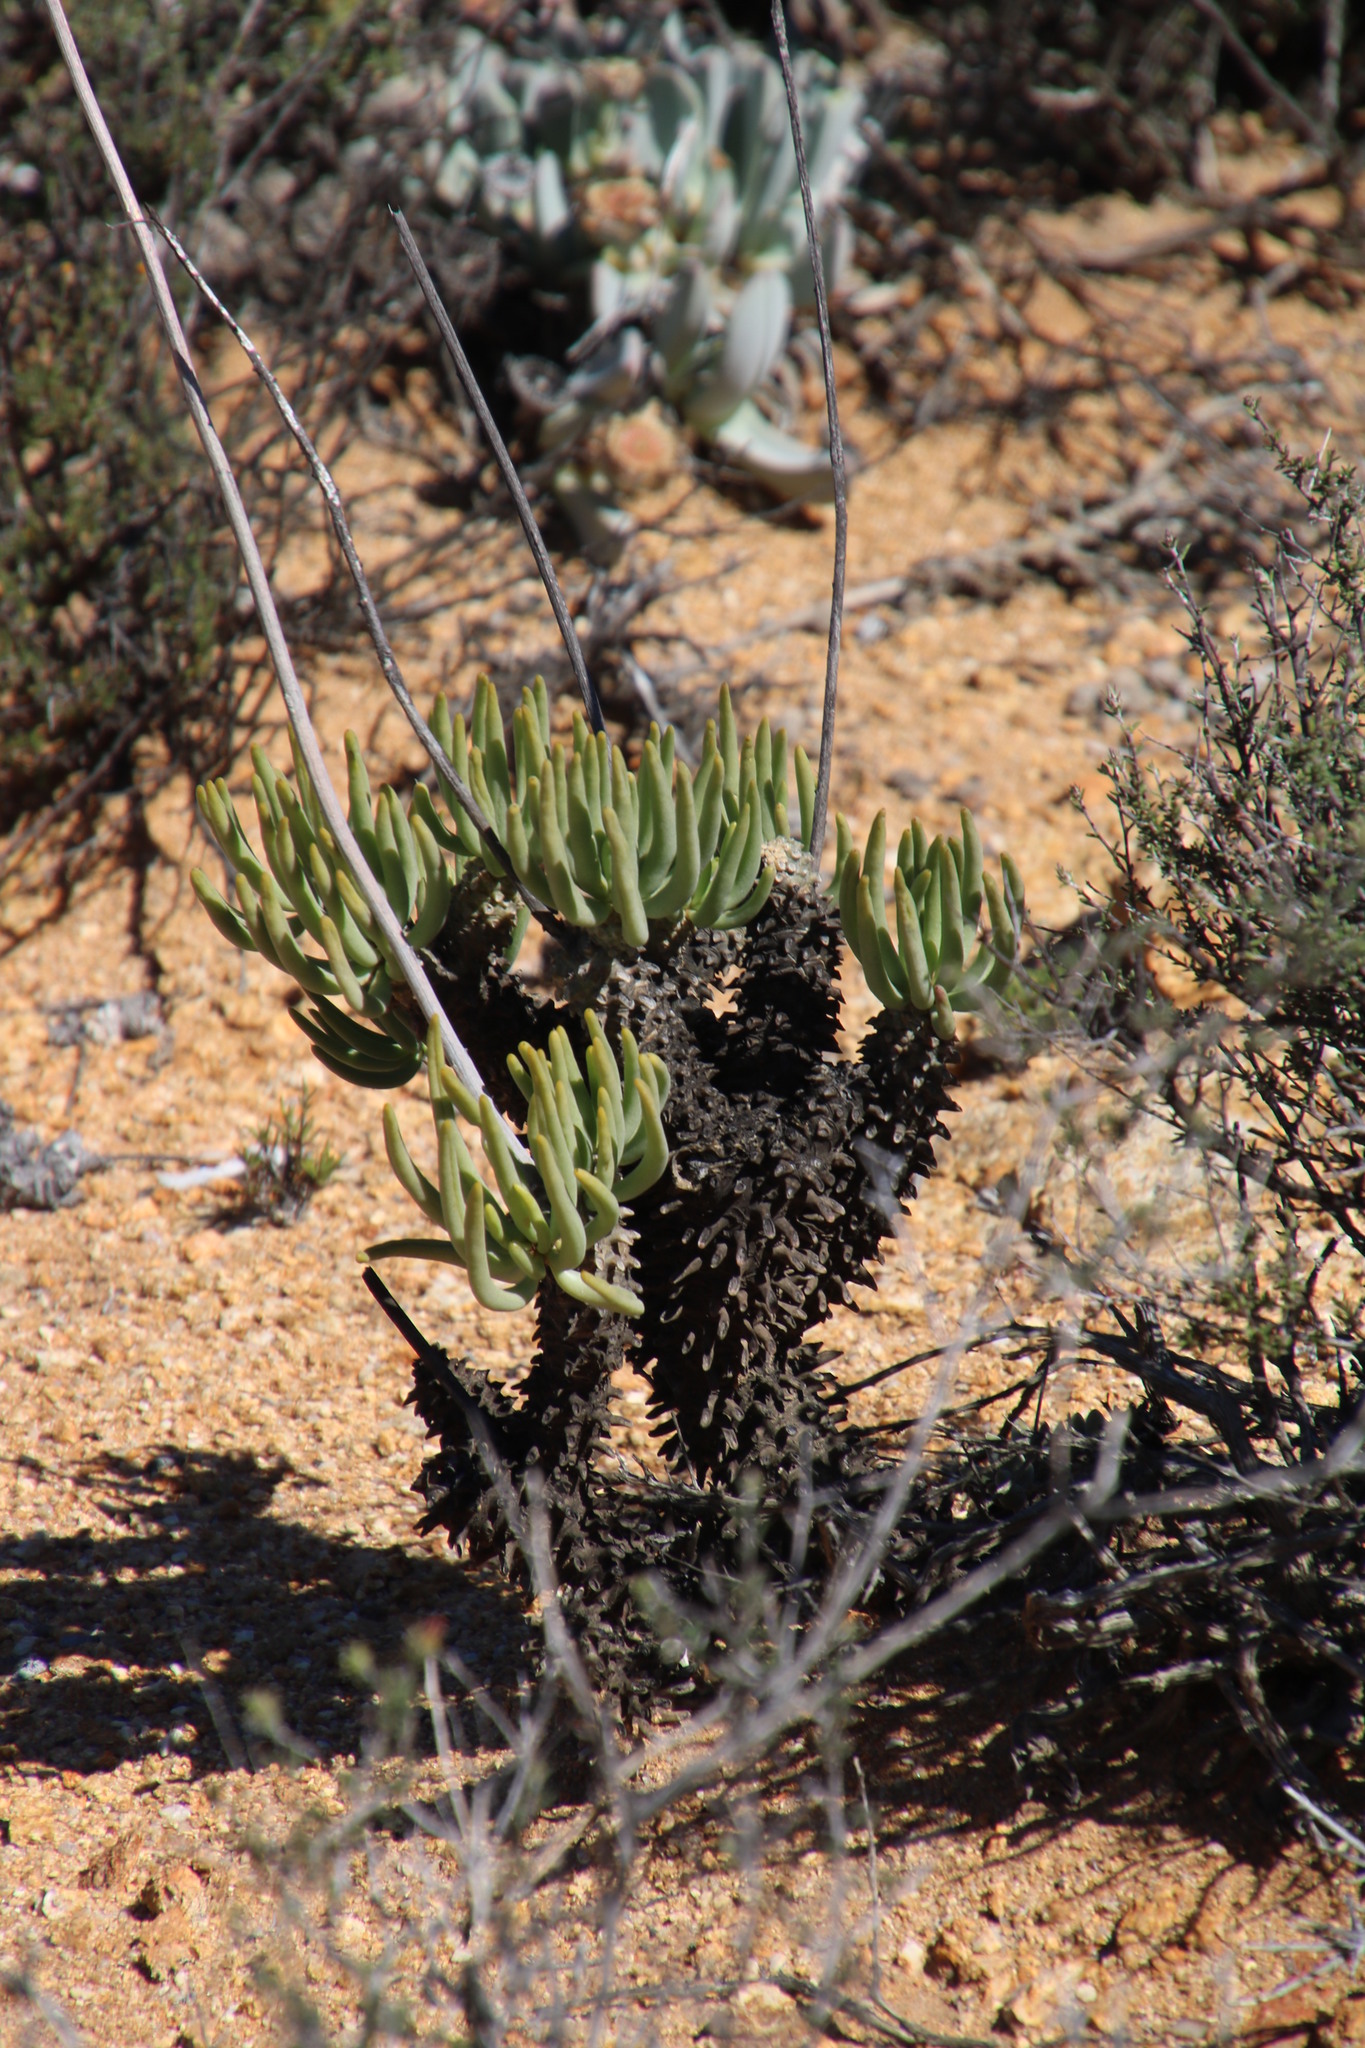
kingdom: Plantae
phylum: Tracheophyta
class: Magnoliopsida
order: Saxifragales
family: Crassulaceae
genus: Tylecodon
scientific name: Tylecodon wallichii
